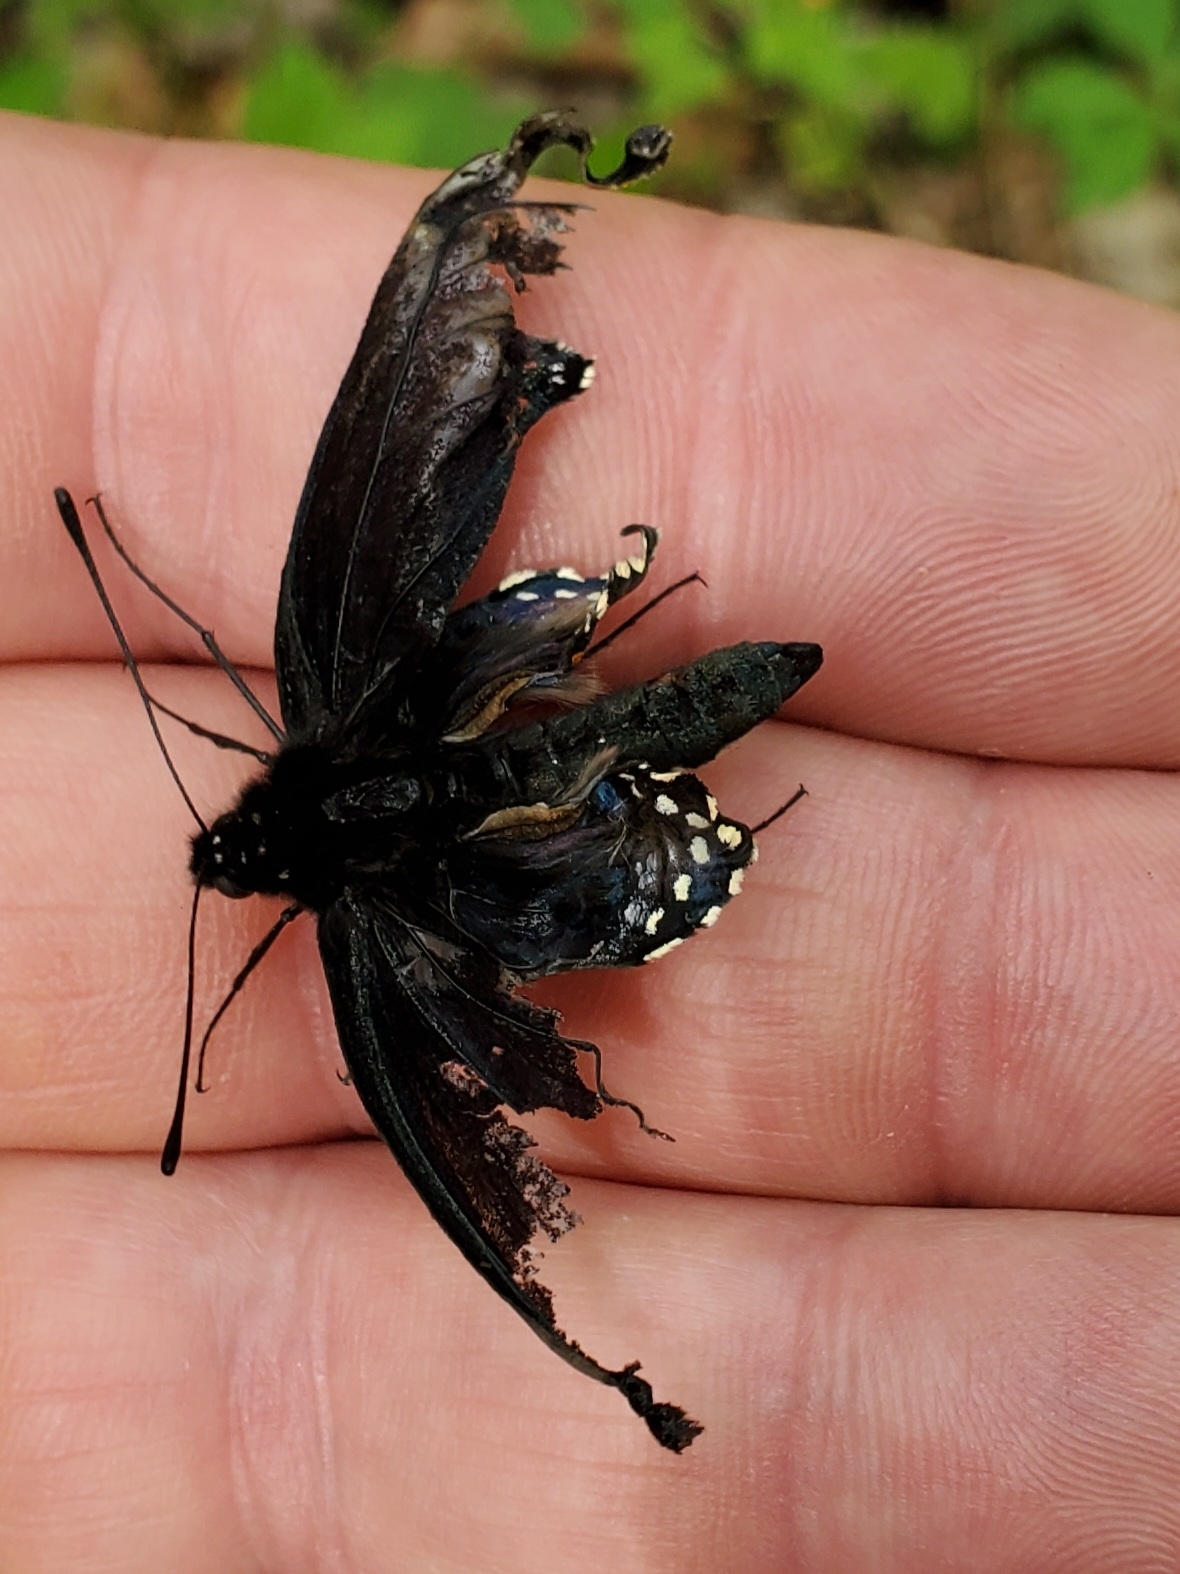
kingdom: Animalia
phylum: Arthropoda
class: Insecta
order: Lepidoptera
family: Papilionidae
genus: Battus
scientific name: Battus philenor
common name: Pipevine swallowtail
